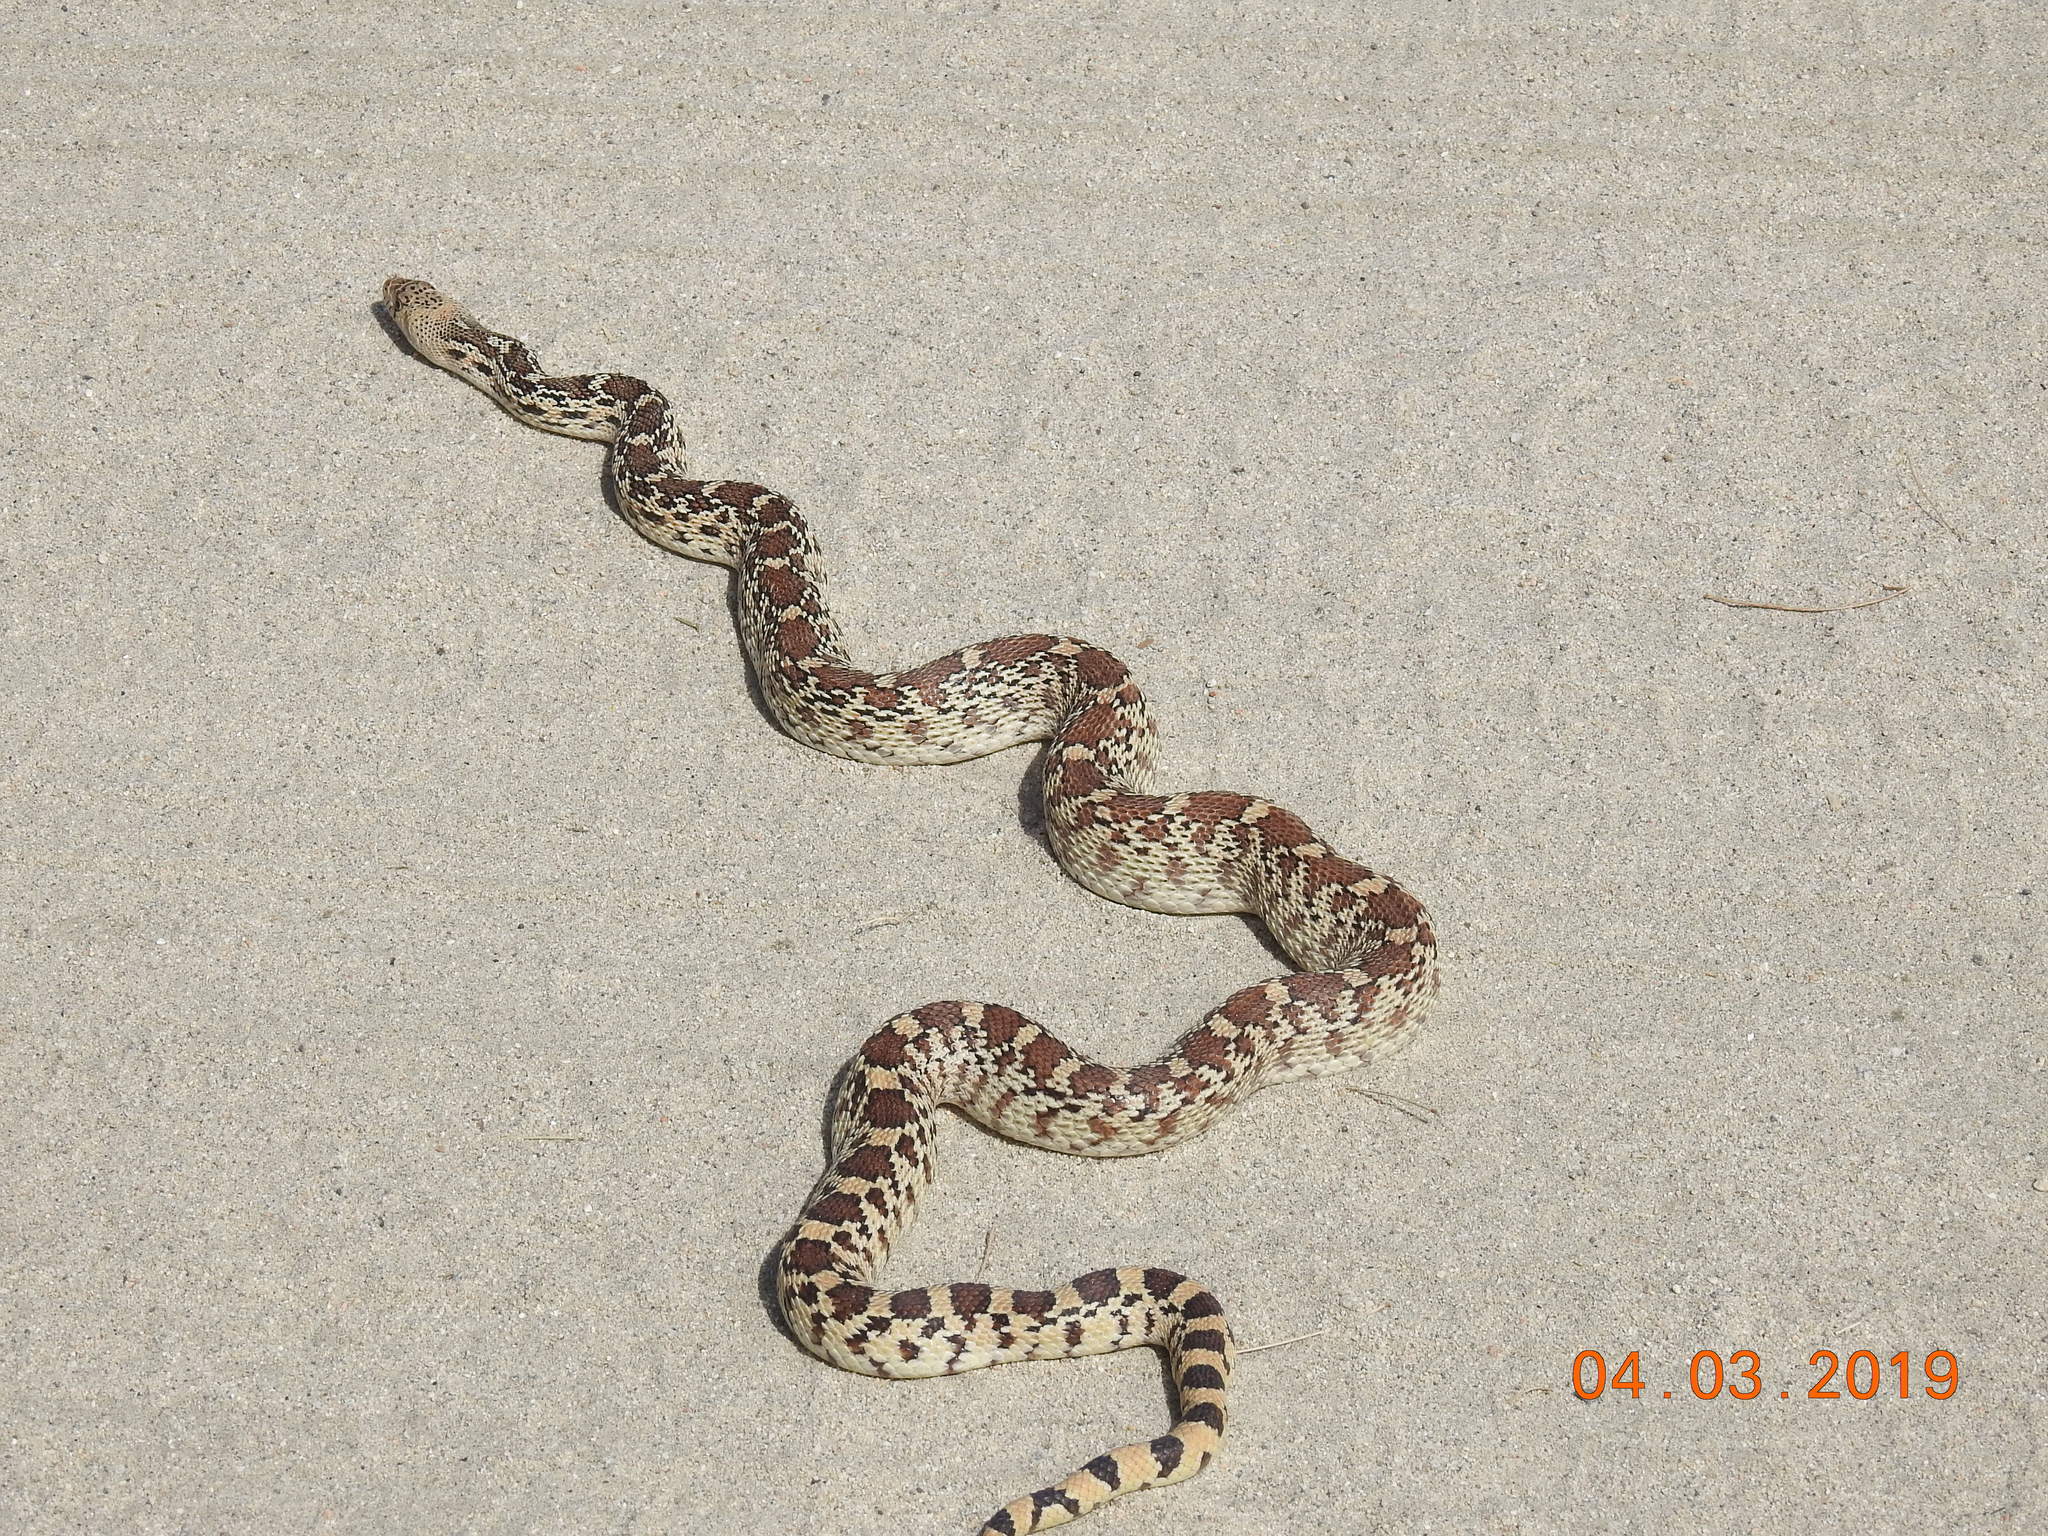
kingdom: Animalia
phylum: Chordata
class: Squamata
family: Colubridae
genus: Pituophis
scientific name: Pituophis catenifer
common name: Gopher snake
